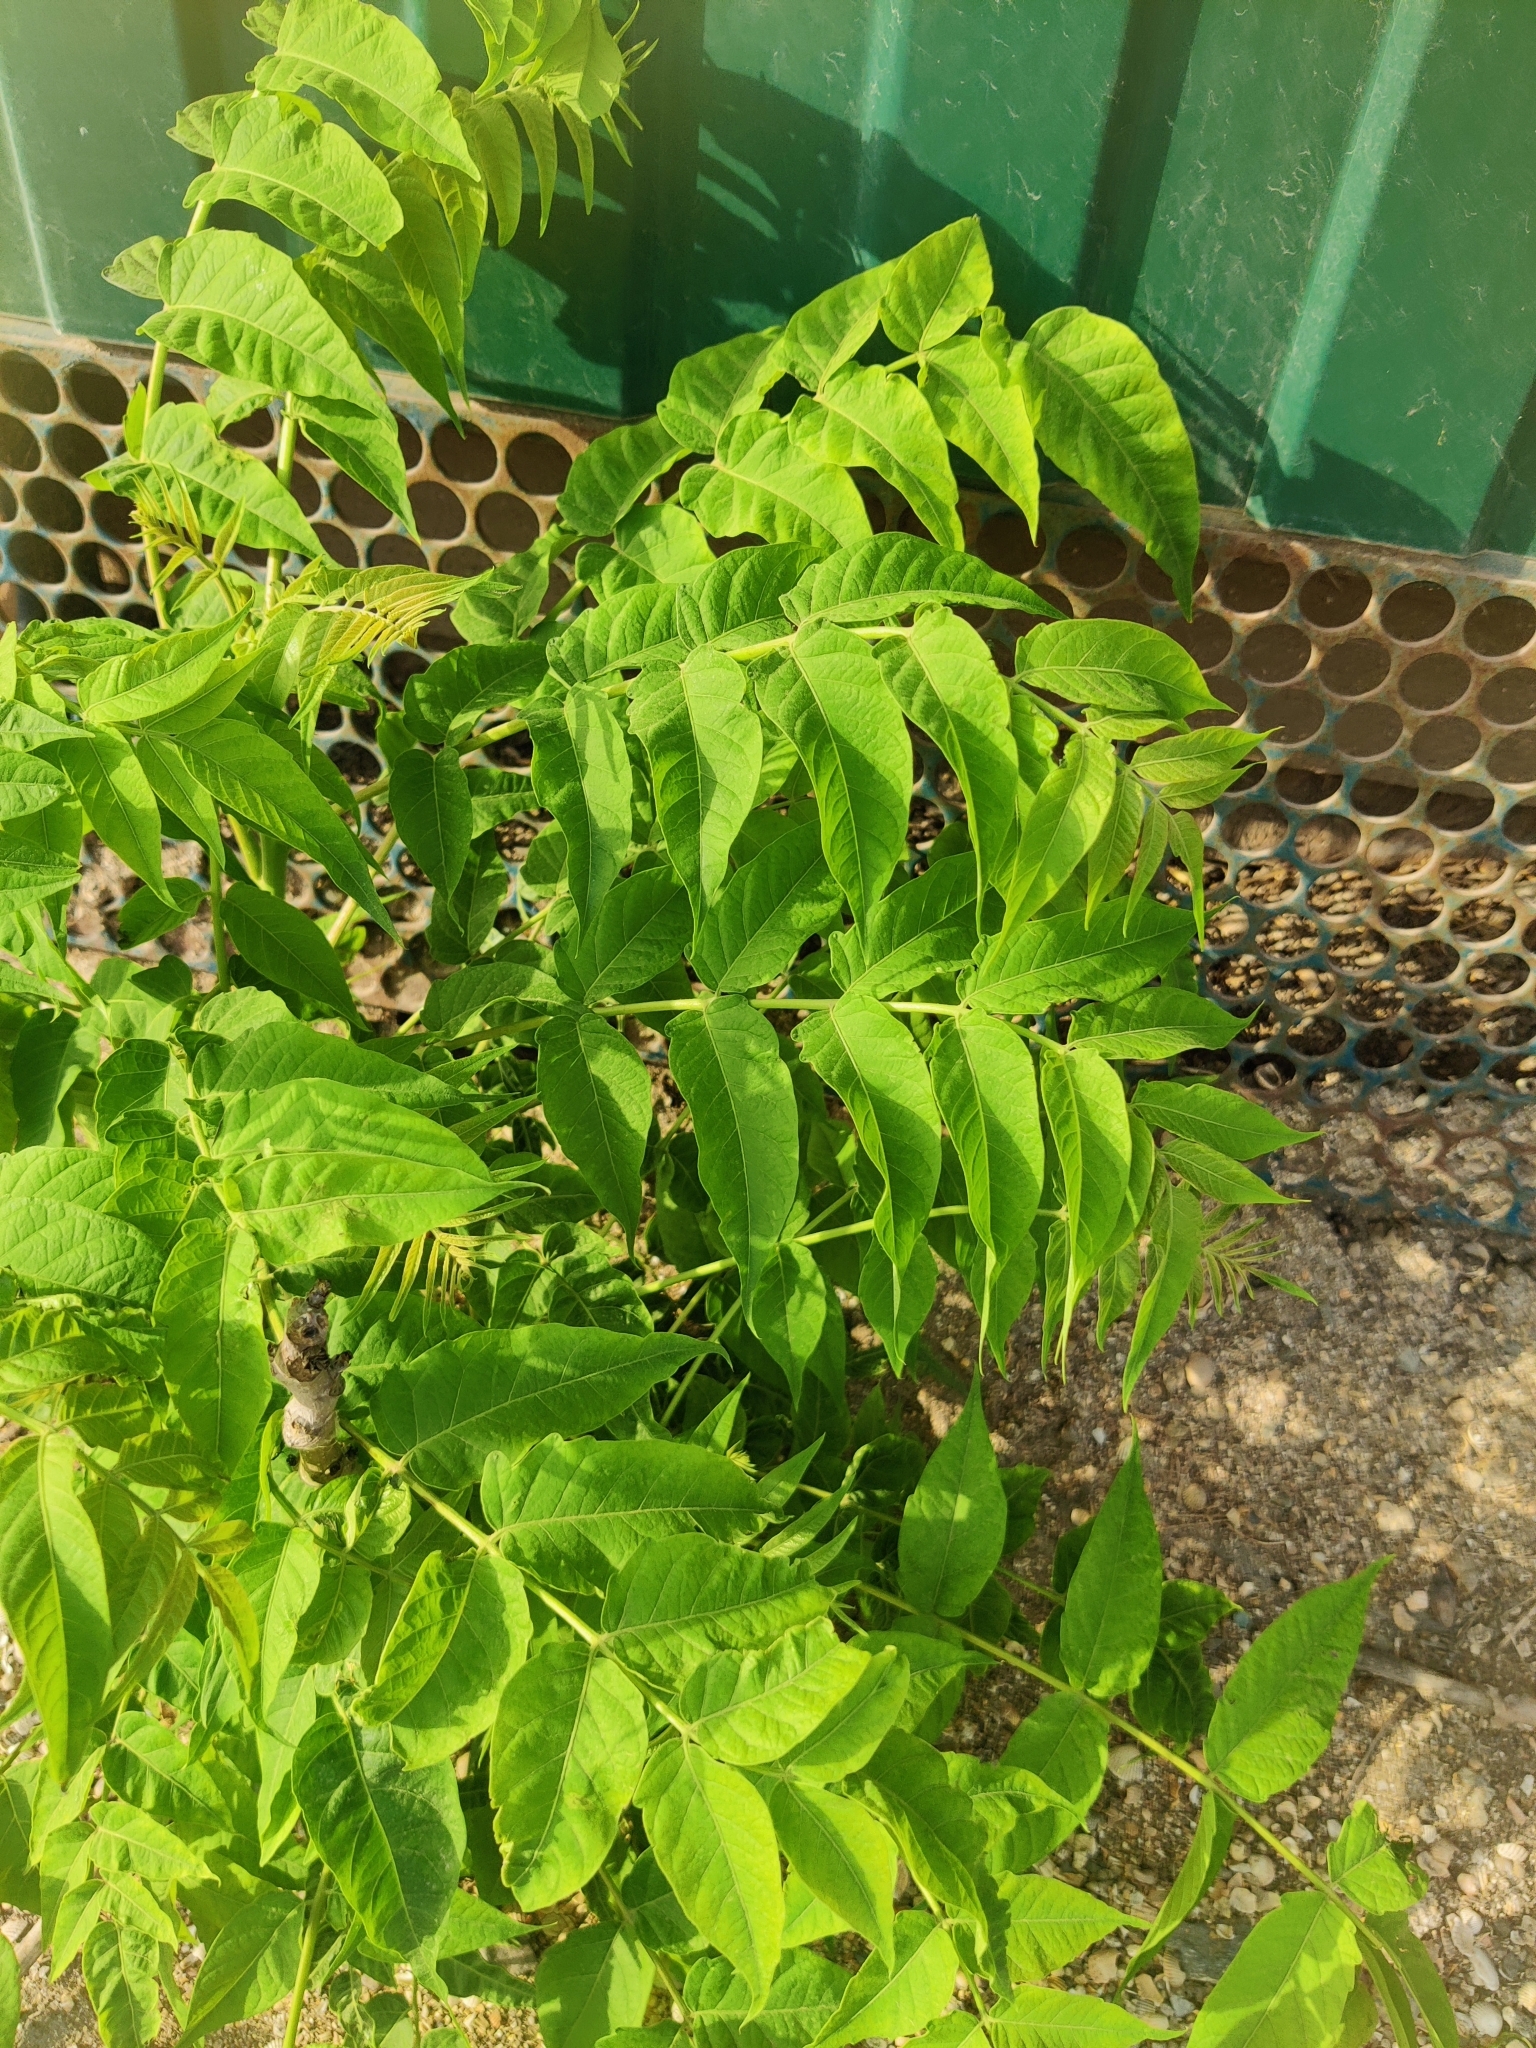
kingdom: Plantae
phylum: Tracheophyta
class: Magnoliopsida
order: Sapindales
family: Simaroubaceae
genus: Ailanthus
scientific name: Ailanthus altissima
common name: Tree-of-heaven
